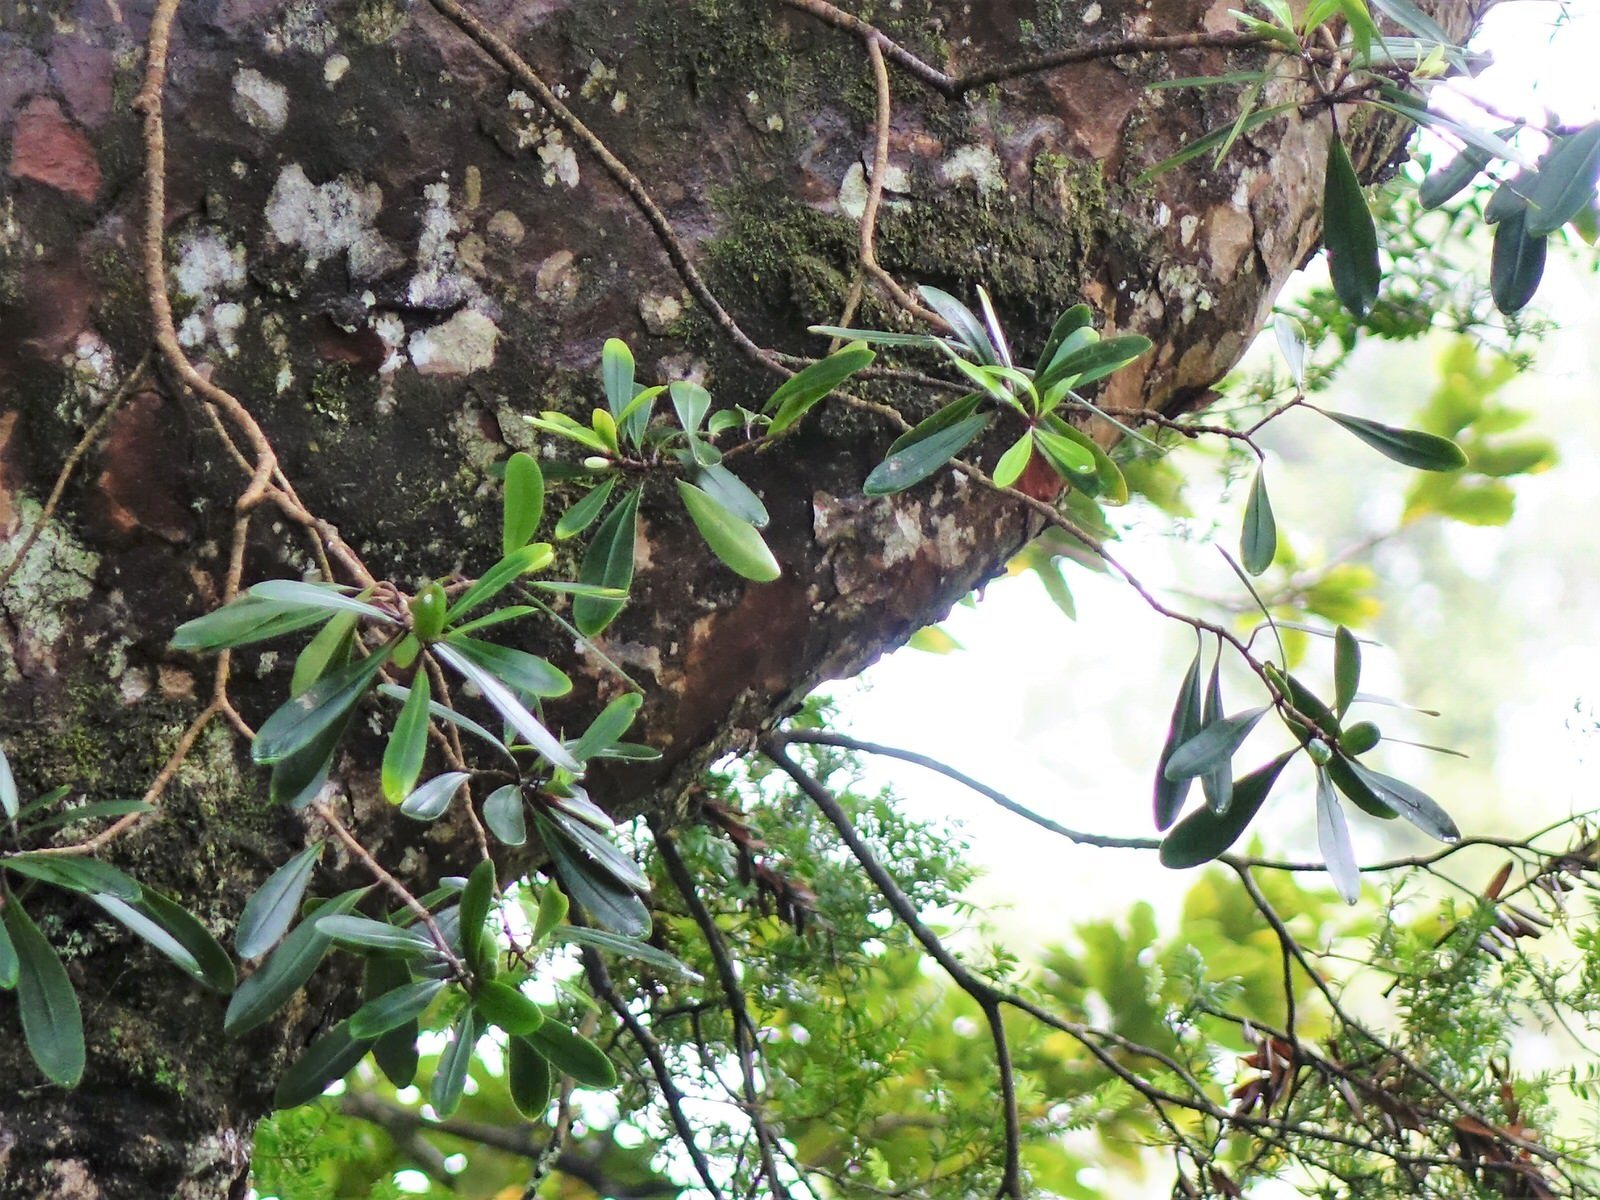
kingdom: Plantae
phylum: Tracheophyta
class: Magnoliopsida
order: Apiales
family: Pittosporaceae
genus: Pittosporum
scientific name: Pittosporum kirkii
